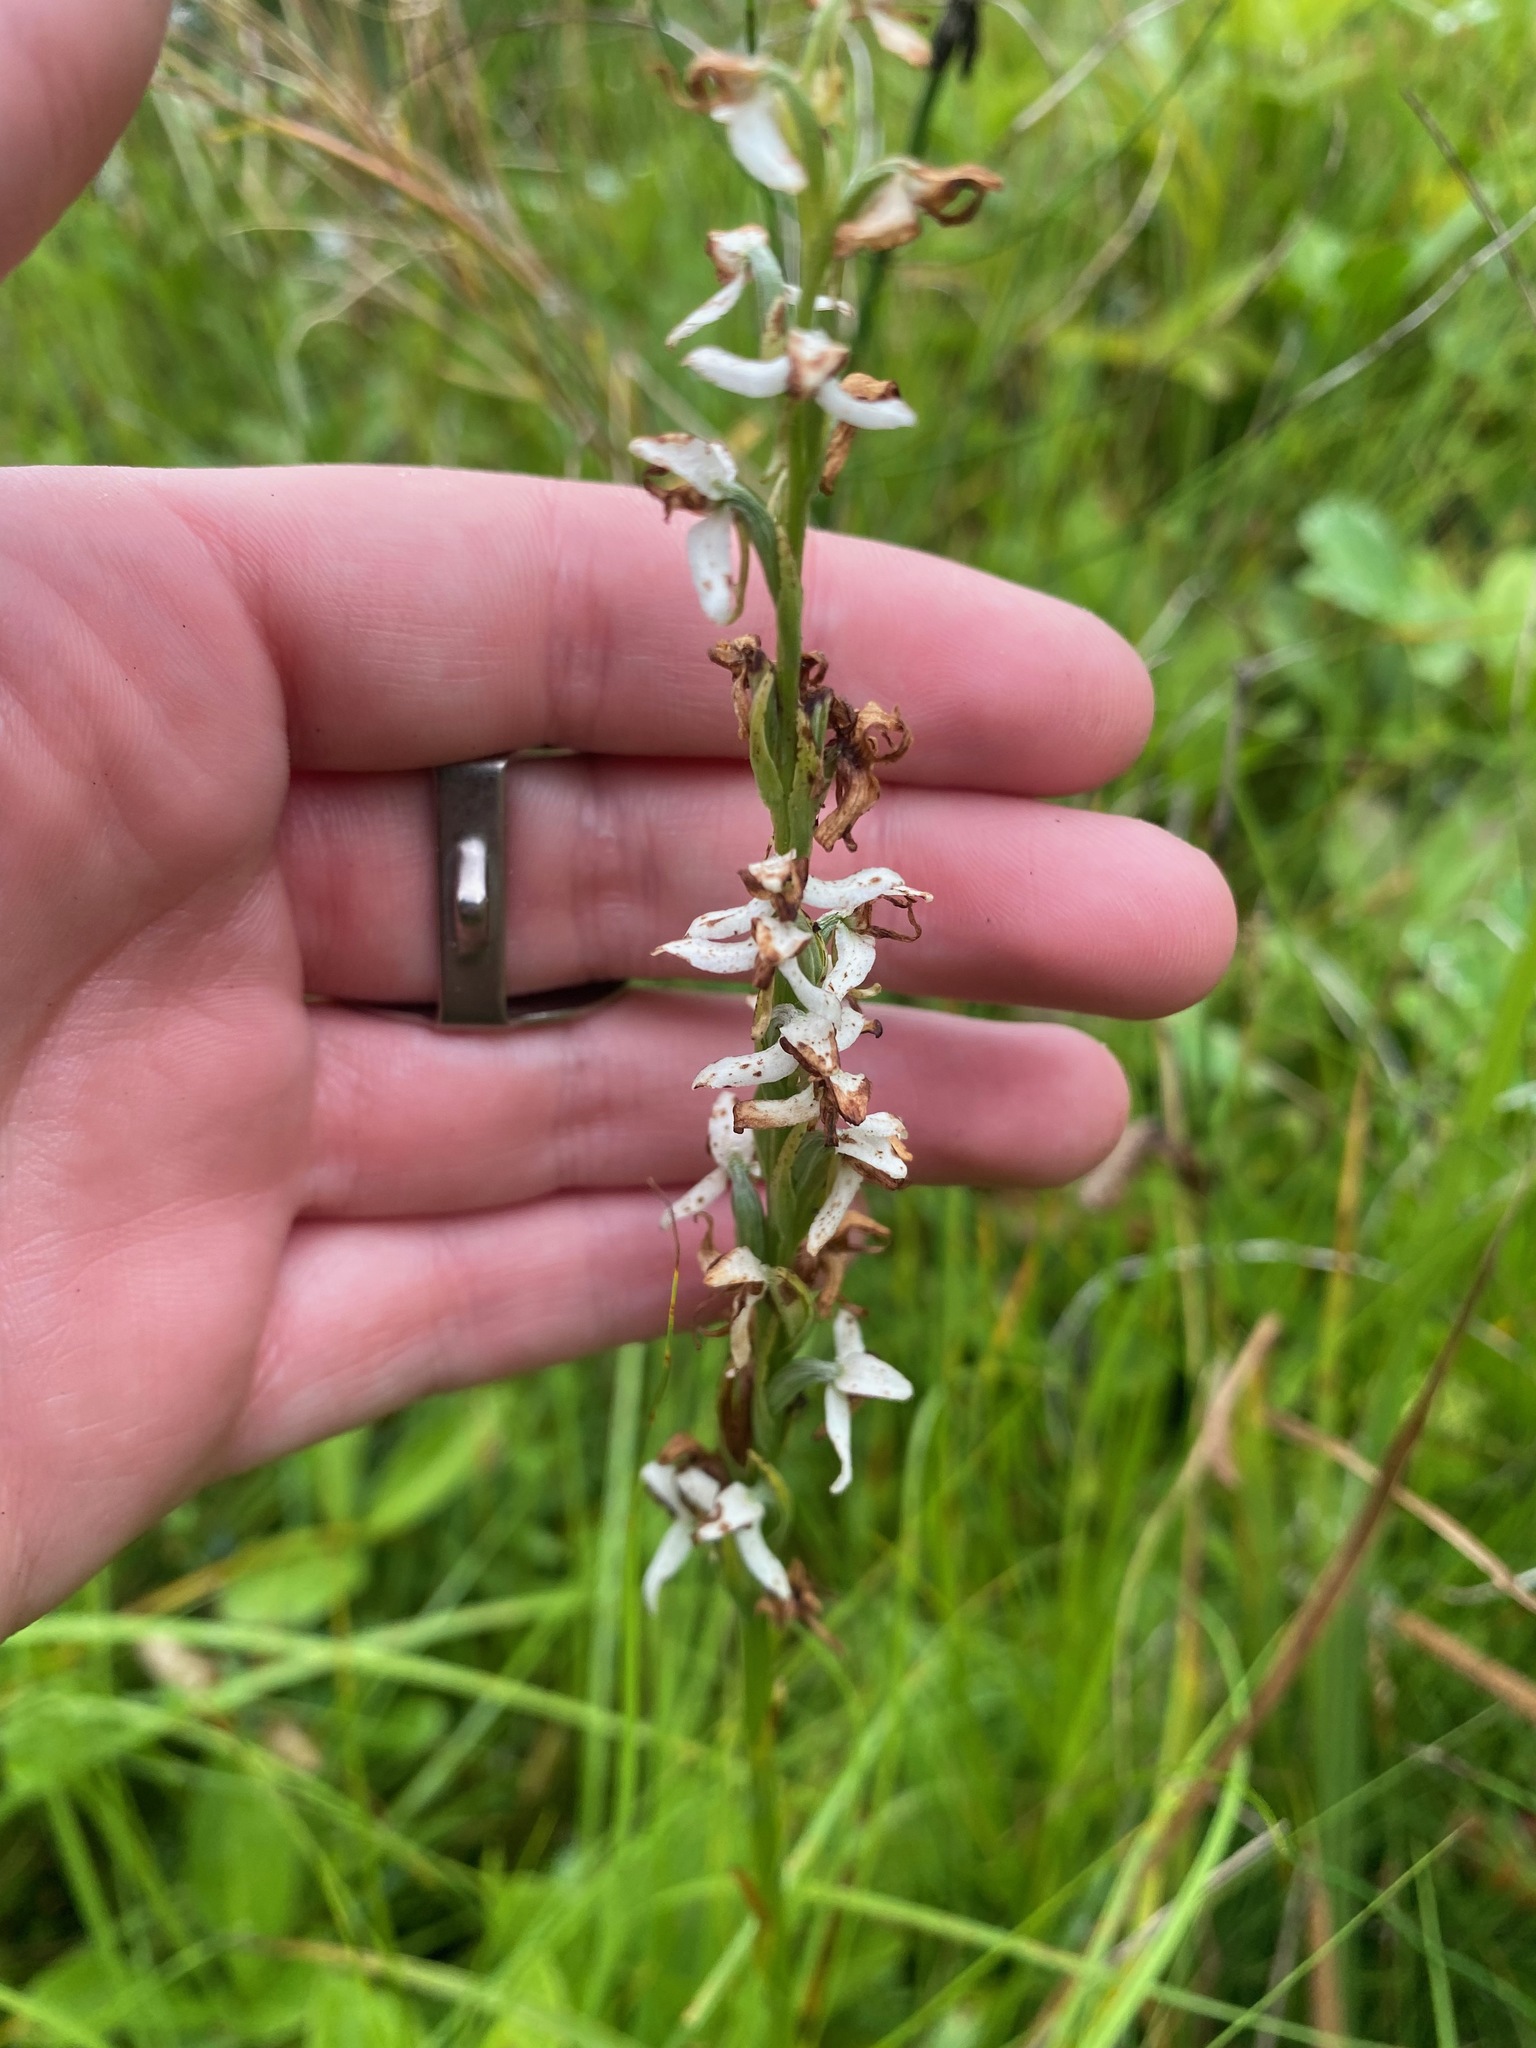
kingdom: Plantae
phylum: Tracheophyta
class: Liliopsida
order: Asparagales
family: Orchidaceae
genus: Platanthera
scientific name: Platanthera dilatata
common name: Bog candles
